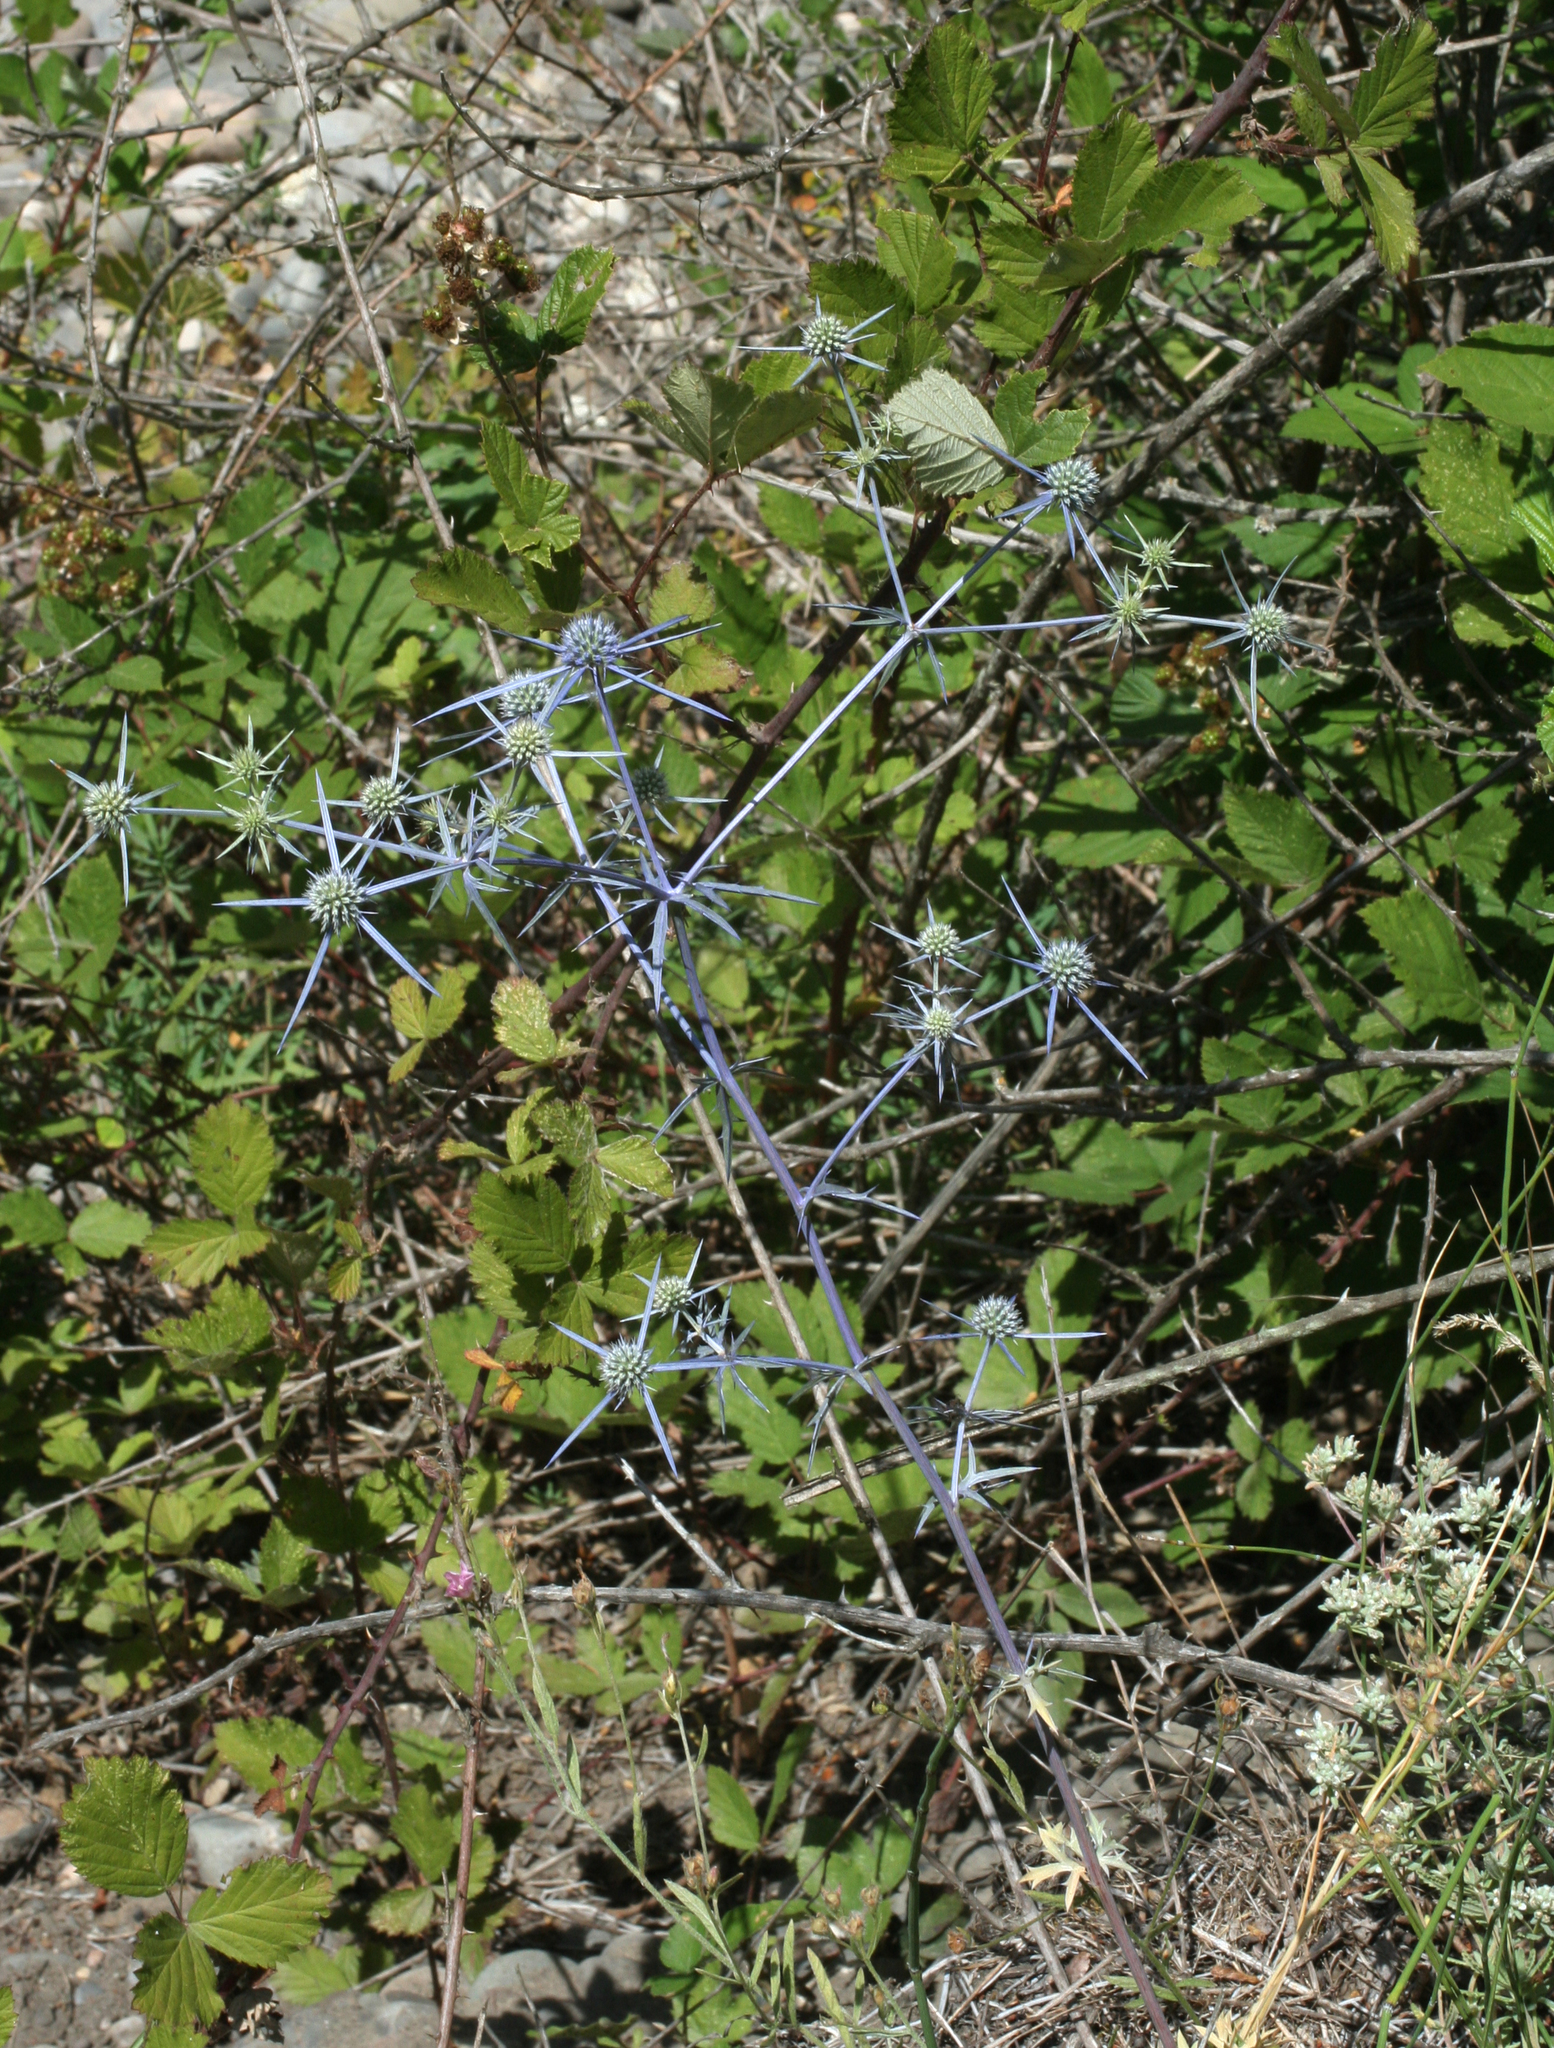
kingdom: Plantae
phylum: Tracheophyta
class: Magnoliopsida
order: Apiales
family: Apiaceae
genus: Eryngium
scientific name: Eryngium caeruleum
